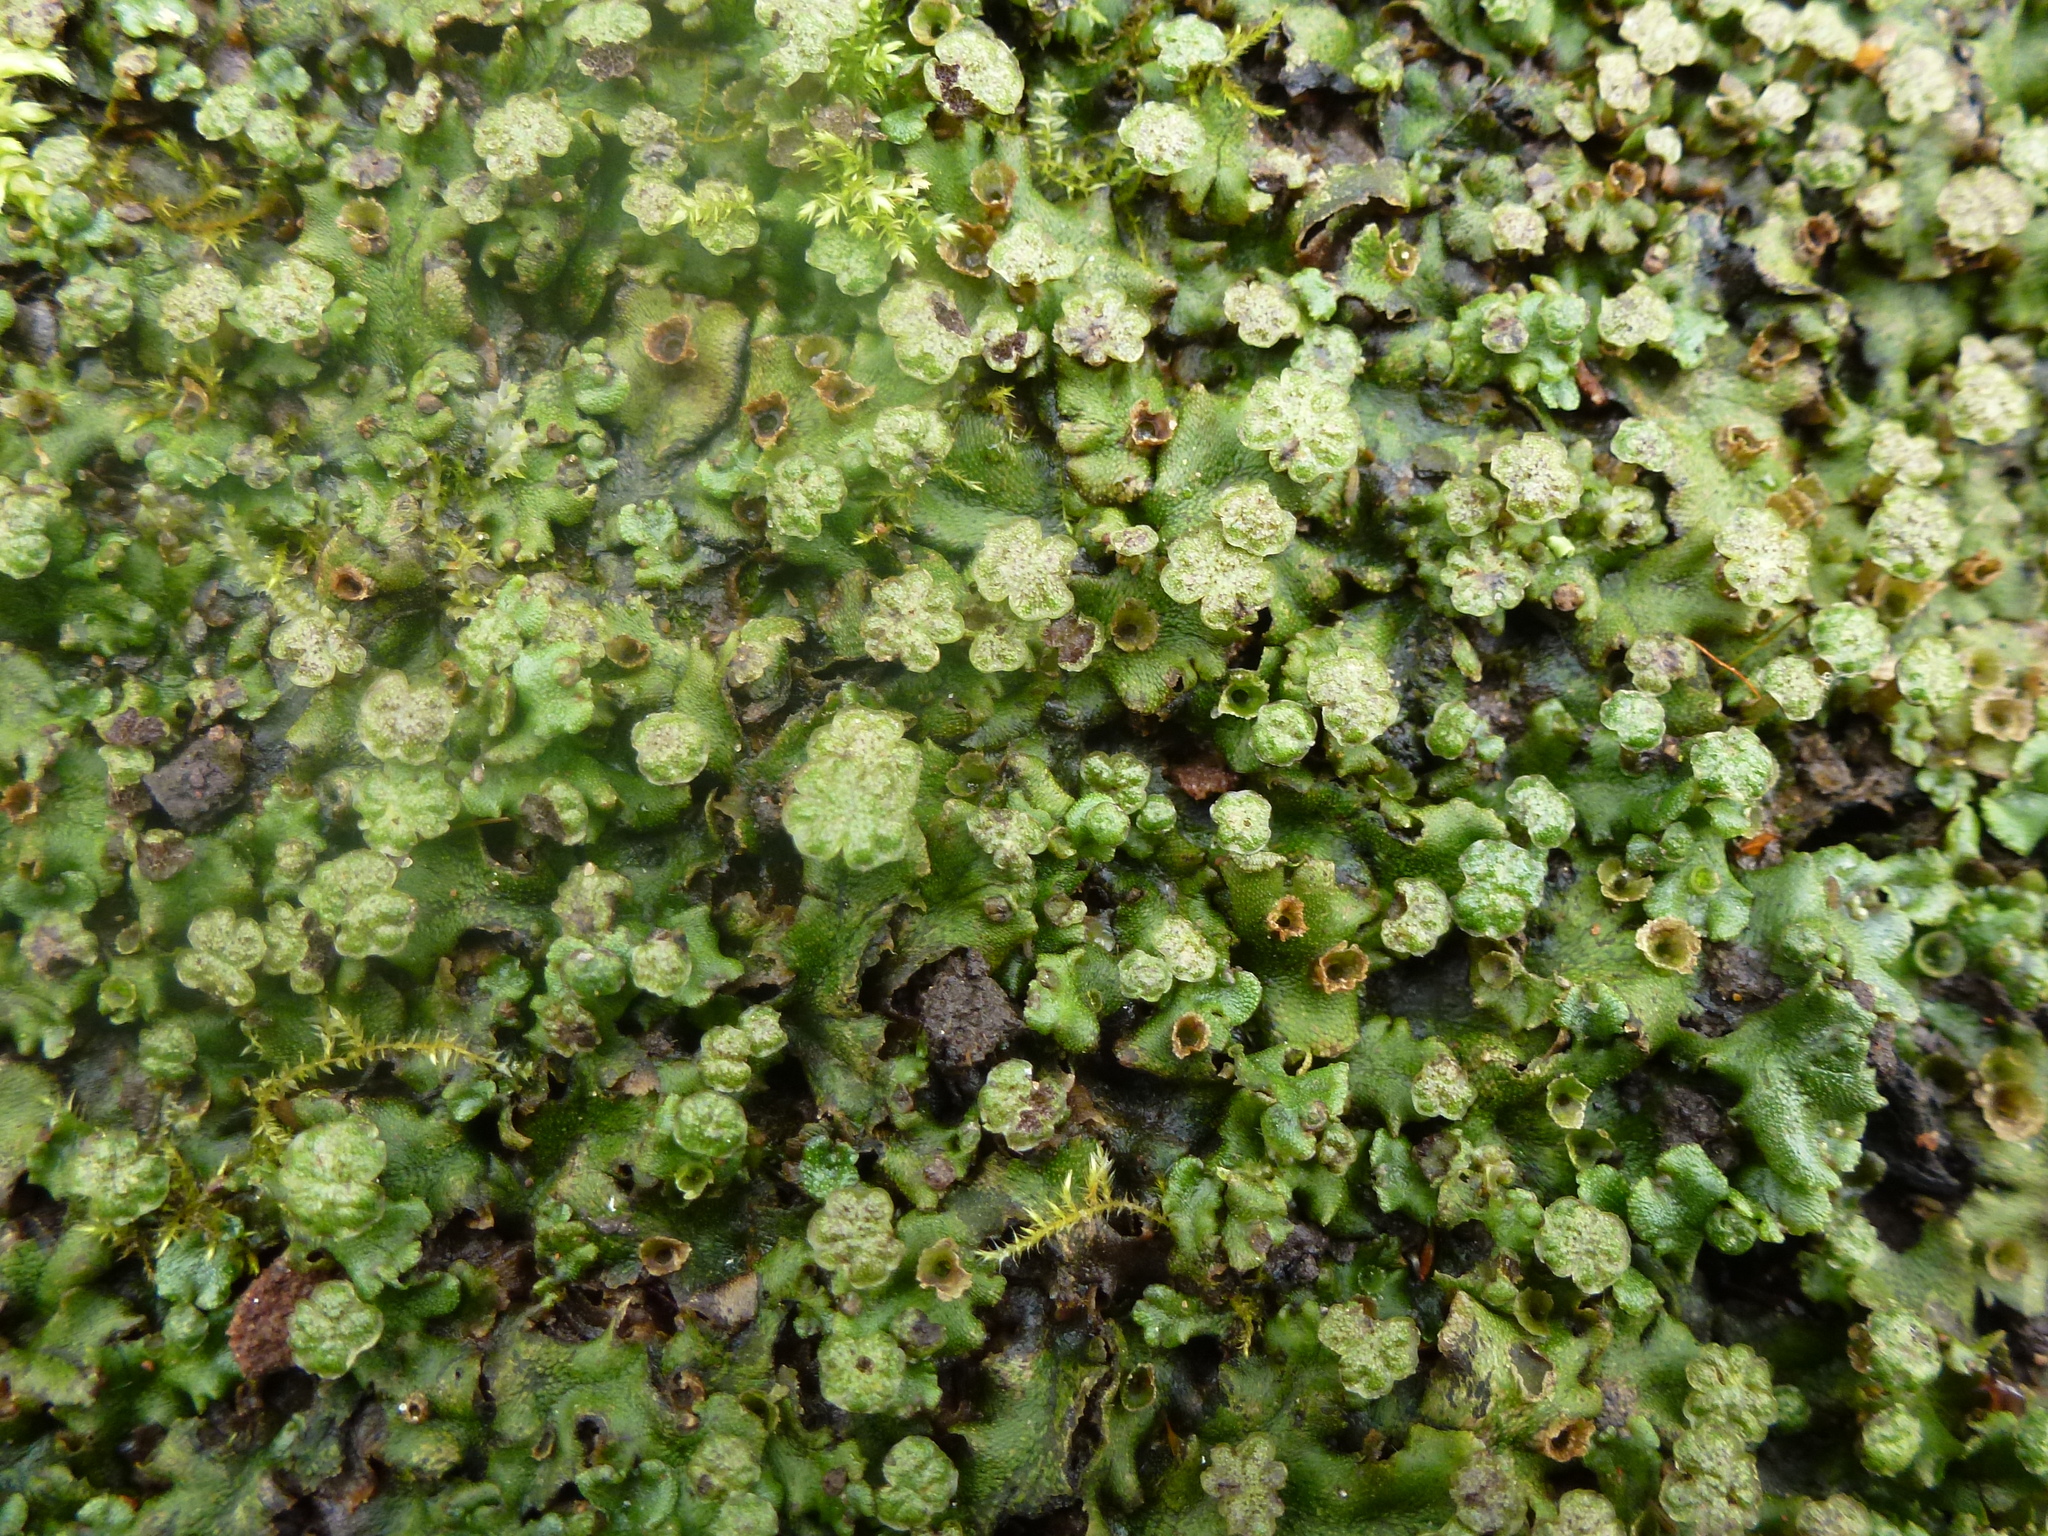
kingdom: Plantae
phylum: Marchantiophyta
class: Marchantiopsida
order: Marchantiales
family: Marchantiaceae
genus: Marchantia
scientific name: Marchantia polymorpha
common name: Common liverwort
